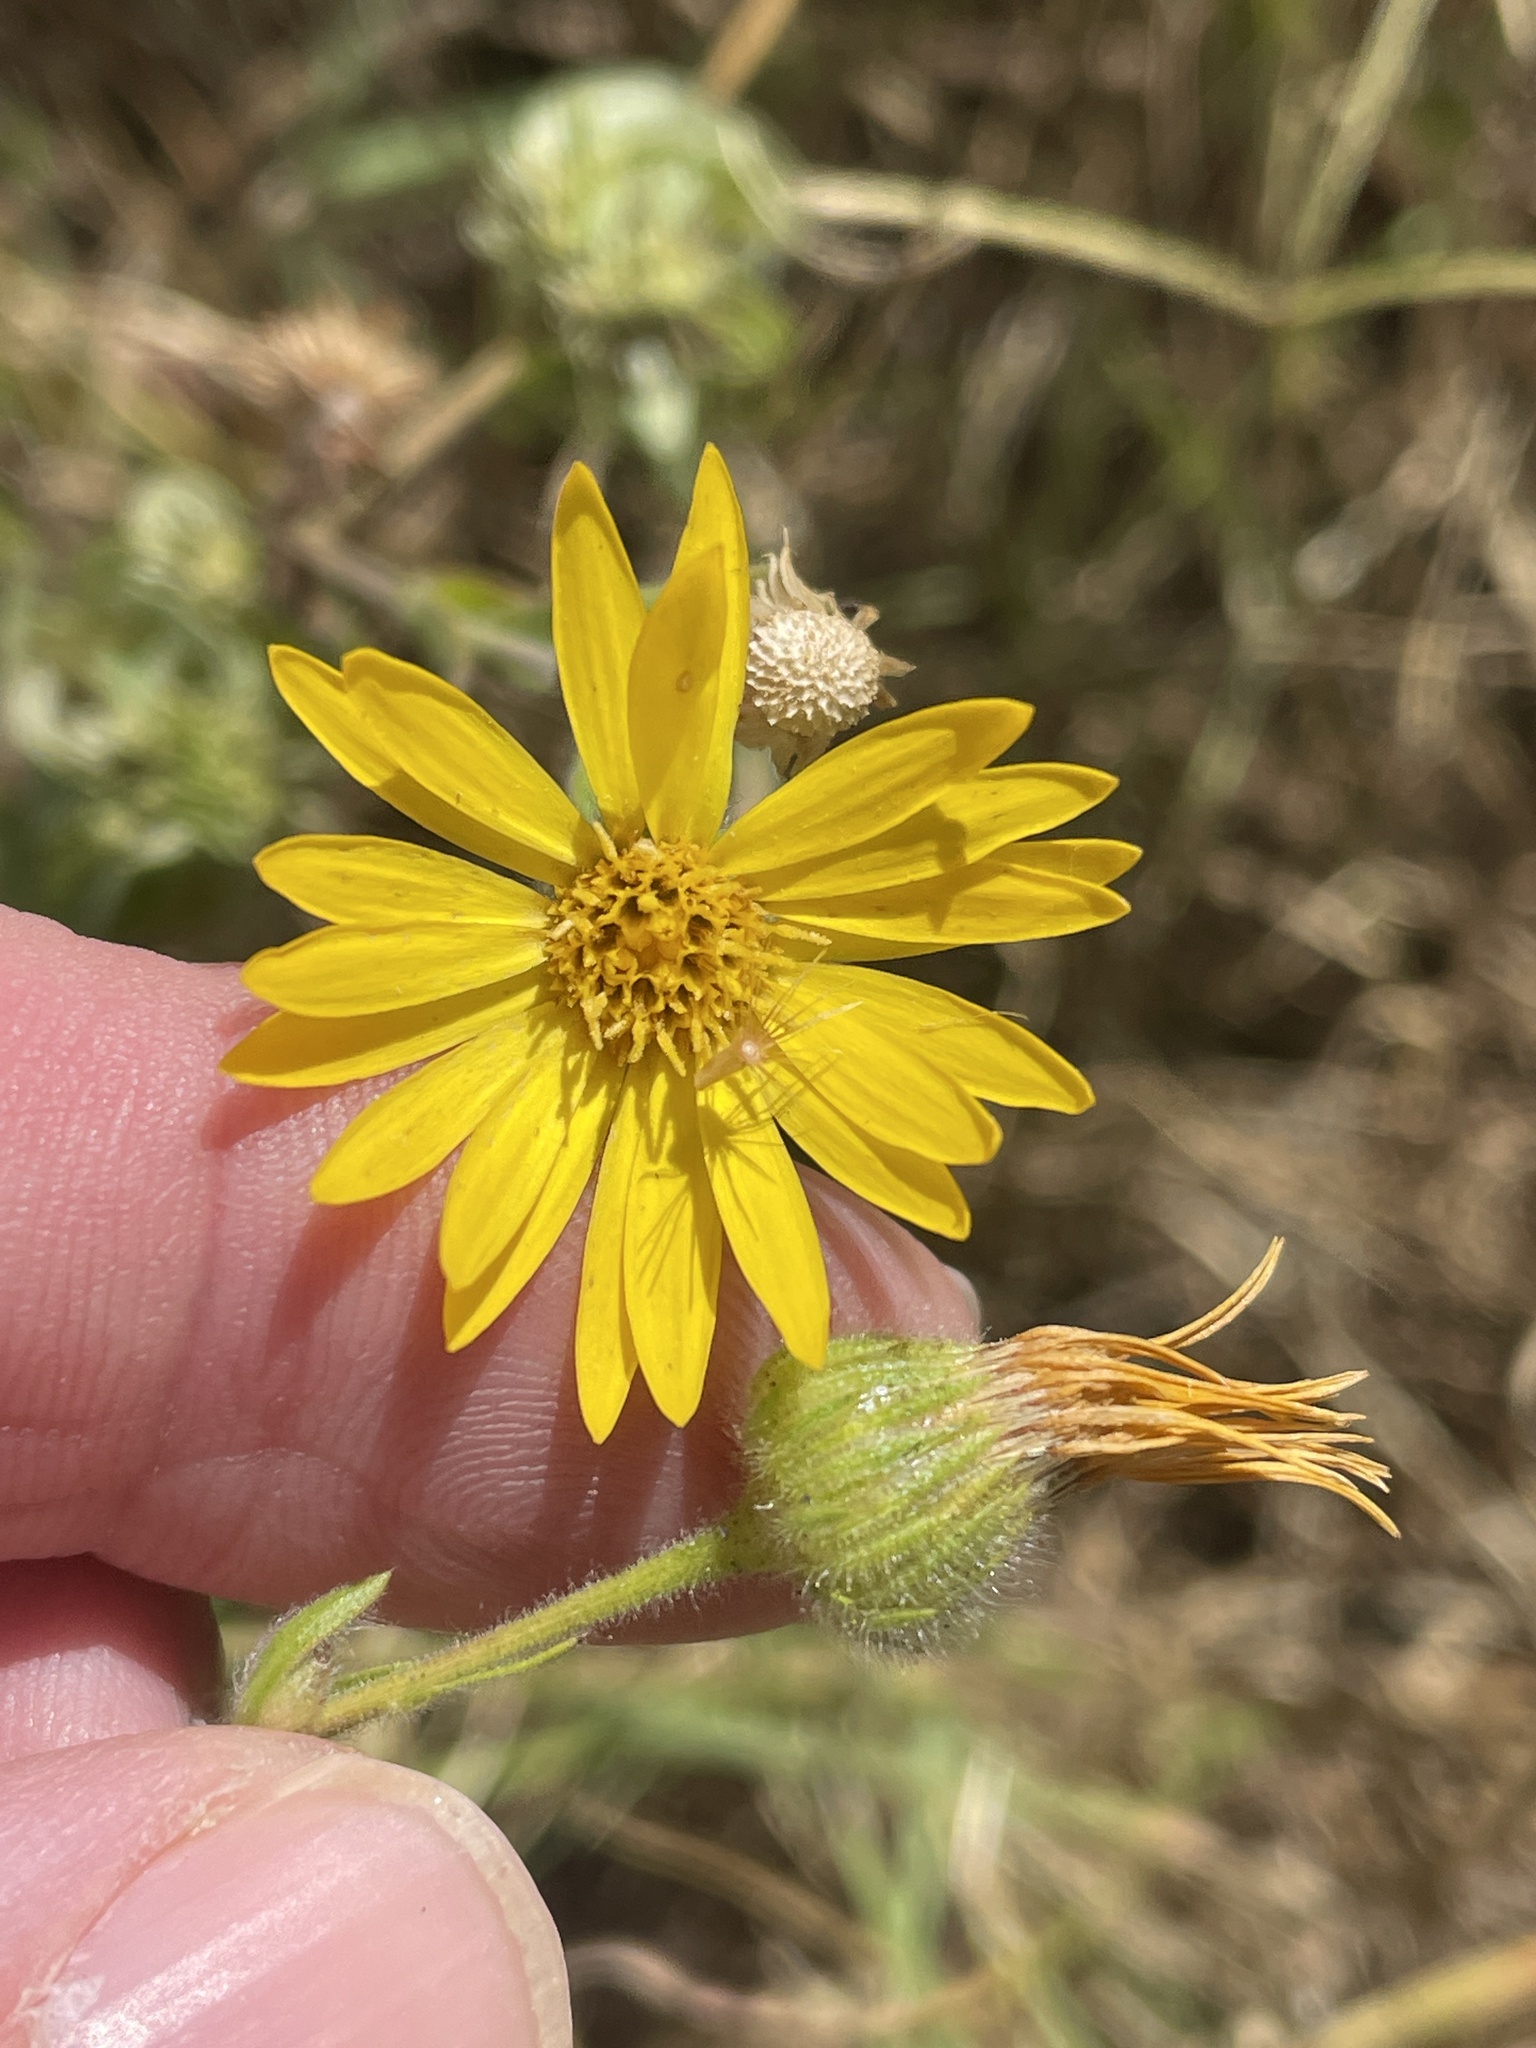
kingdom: Plantae
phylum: Tracheophyta
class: Magnoliopsida
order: Asterales
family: Asteraceae
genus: Bradburia
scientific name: Bradburia pilosa
